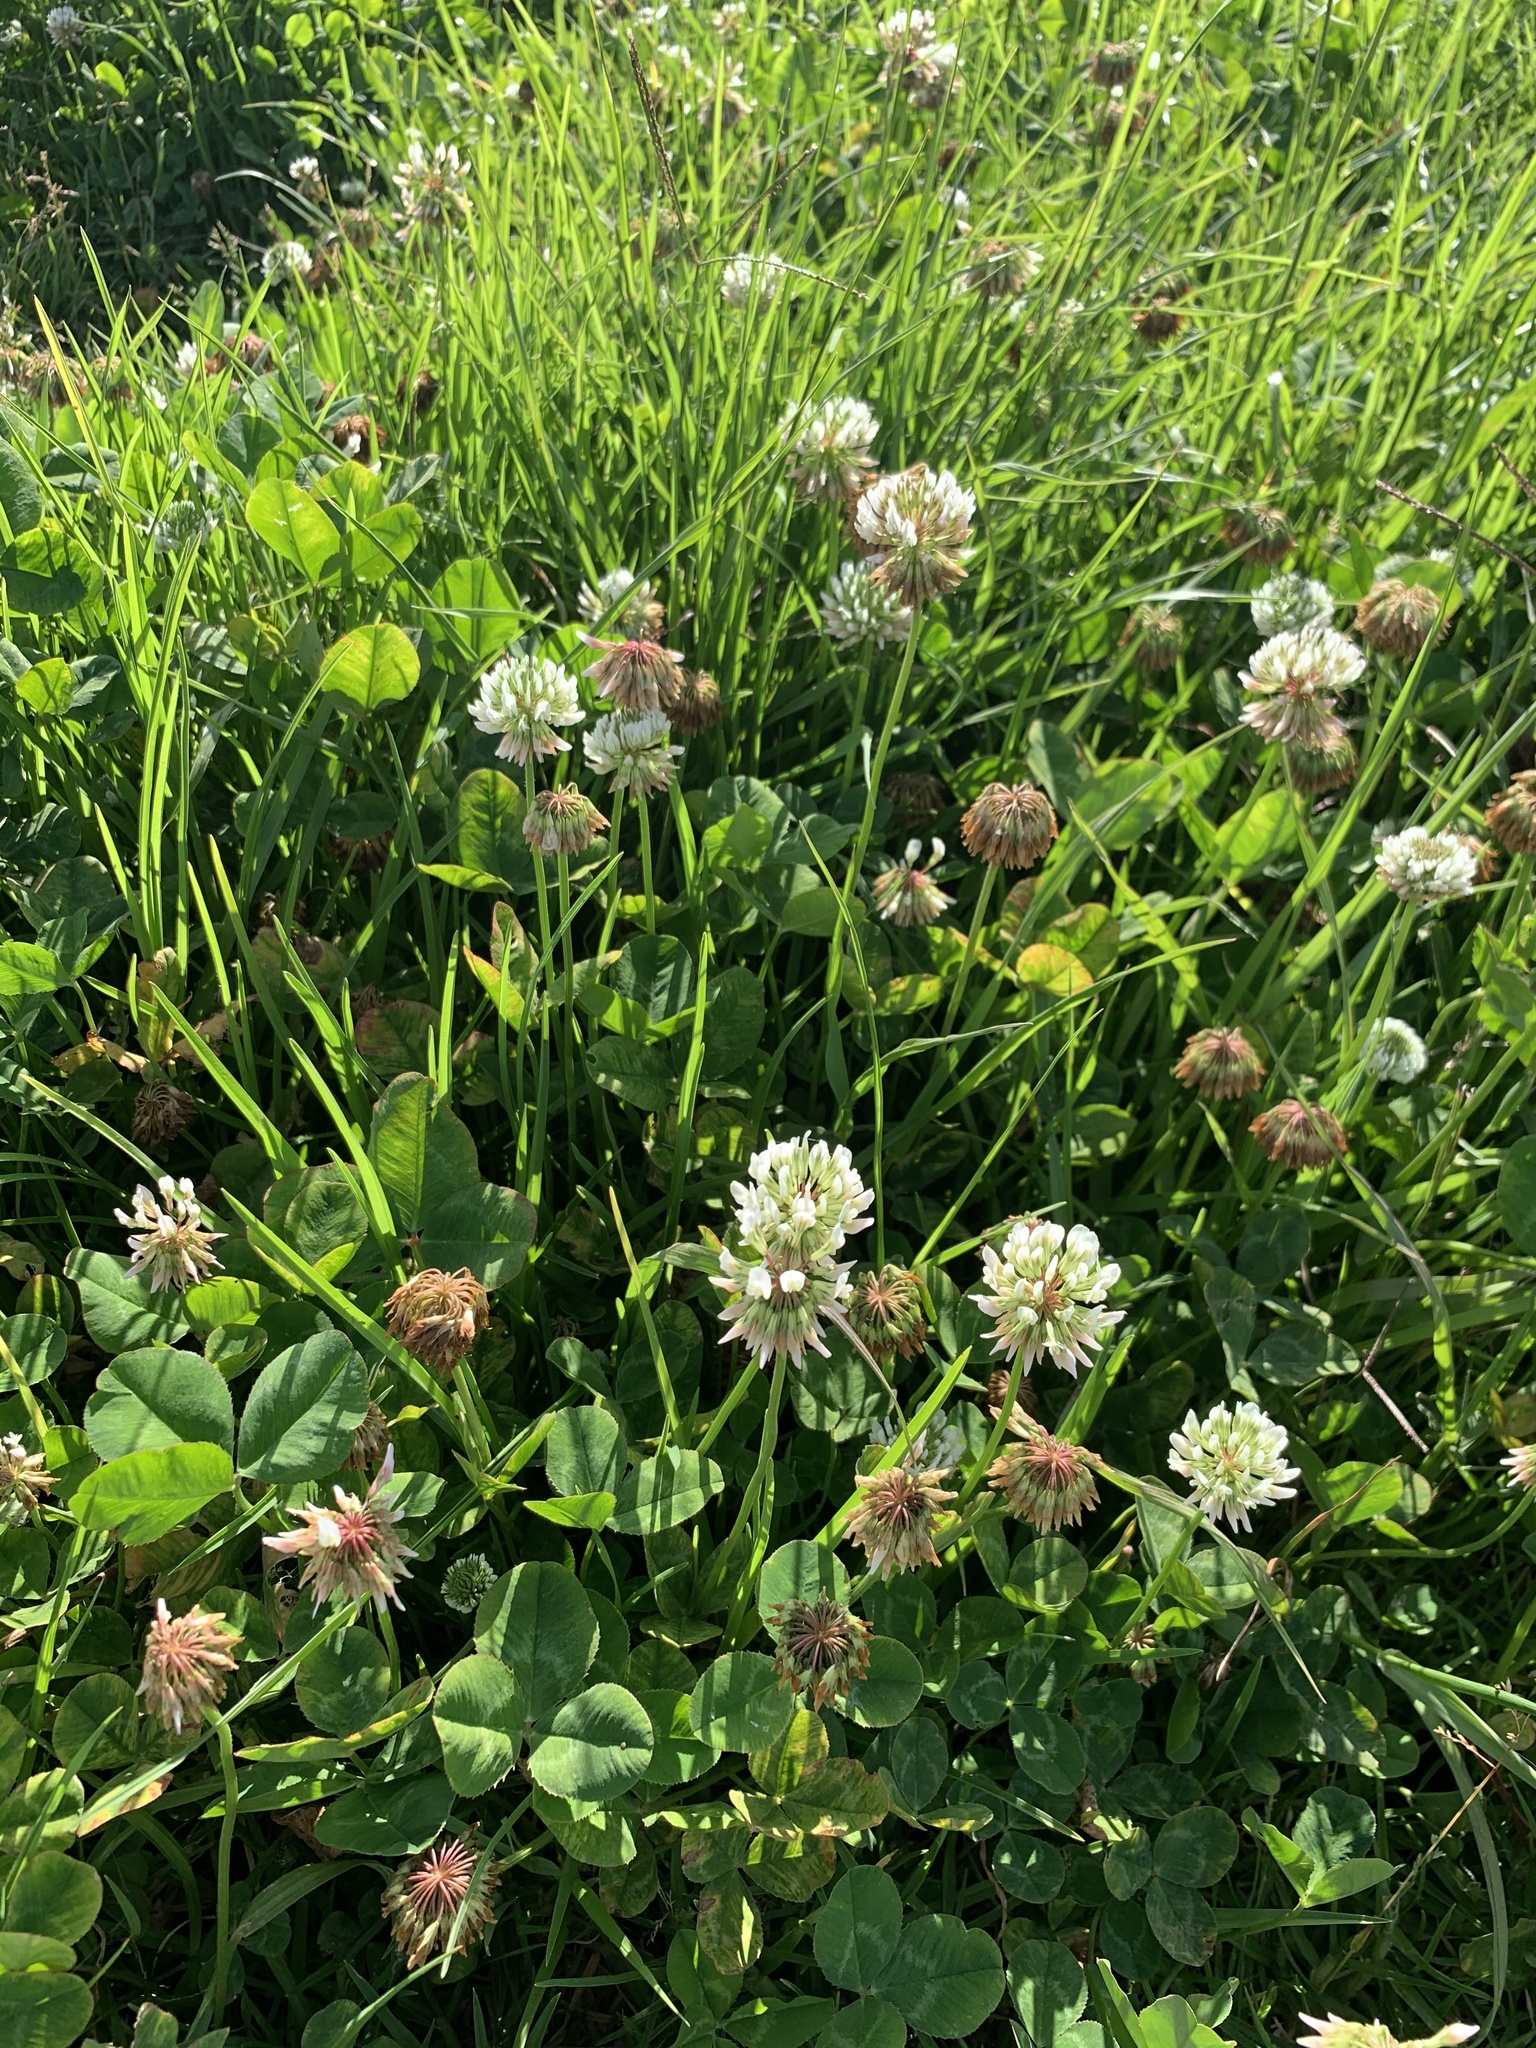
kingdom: Plantae
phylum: Tracheophyta
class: Magnoliopsida
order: Fabales
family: Fabaceae
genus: Trifolium
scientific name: Trifolium repens
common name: White clover
